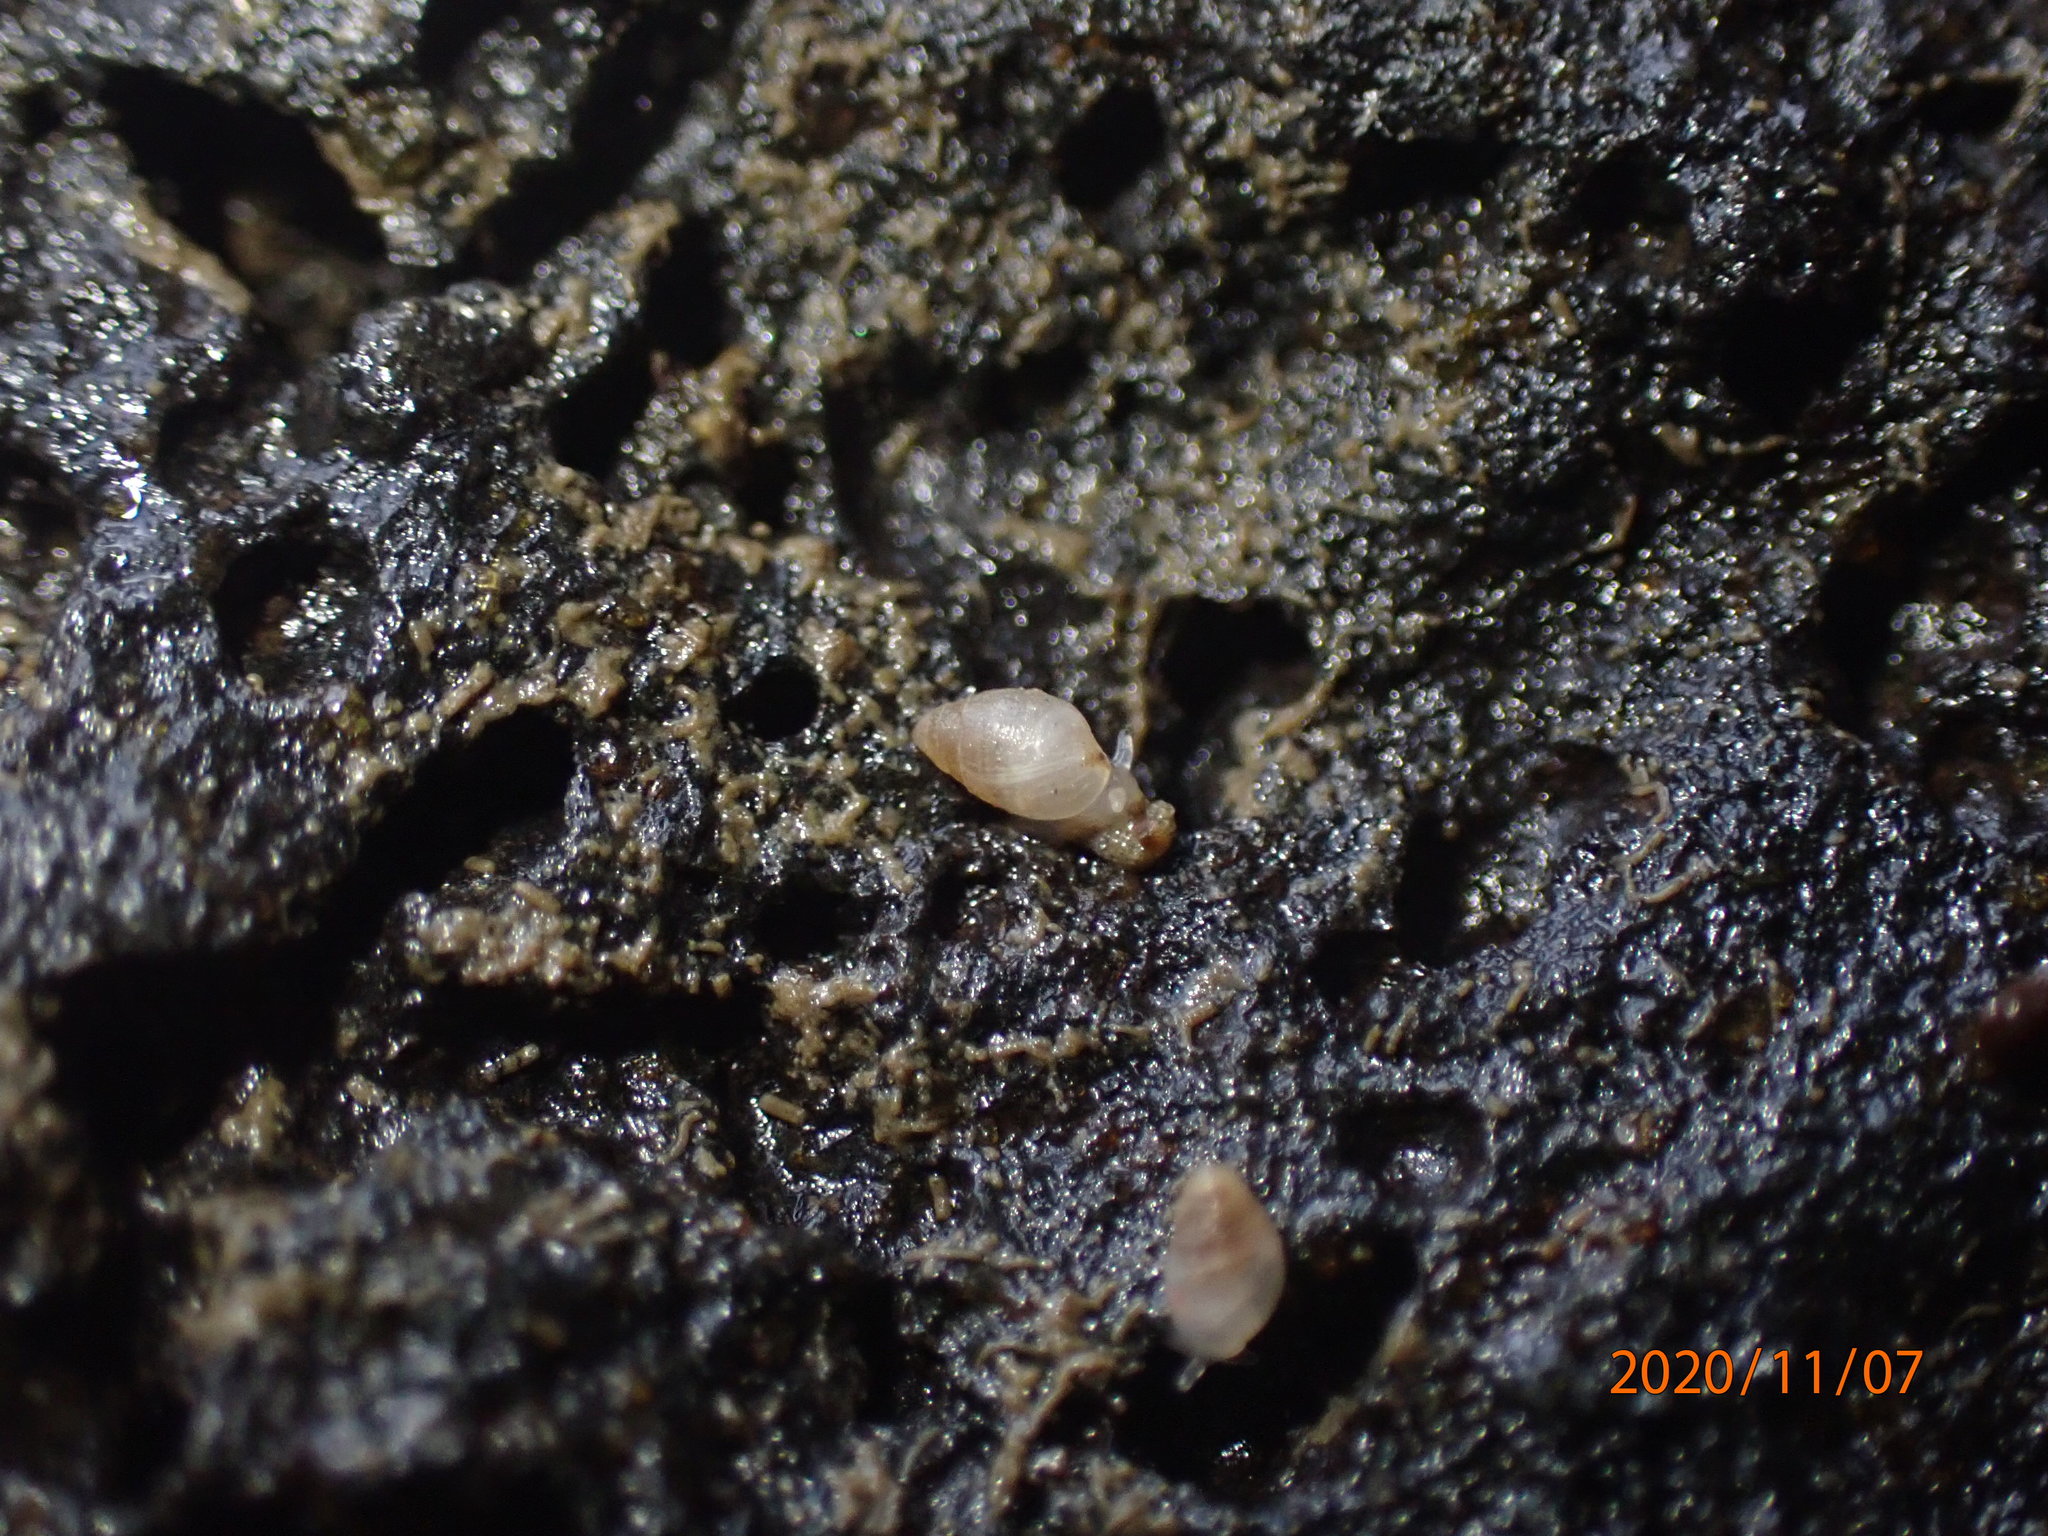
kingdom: Animalia
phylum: Mollusca
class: Gastropoda
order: Ellobiida
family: Ellobiidae
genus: Leuconopsis
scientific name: Leuconopsis obsoleta
